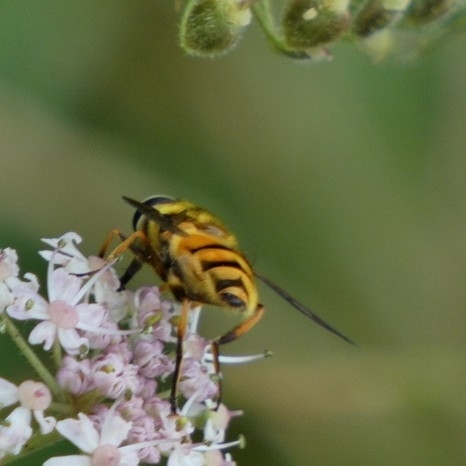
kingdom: Animalia
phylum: Arthropoda
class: Insecta
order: Diptera
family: Syrphidae
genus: Myathropa
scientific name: Myathropa florea
